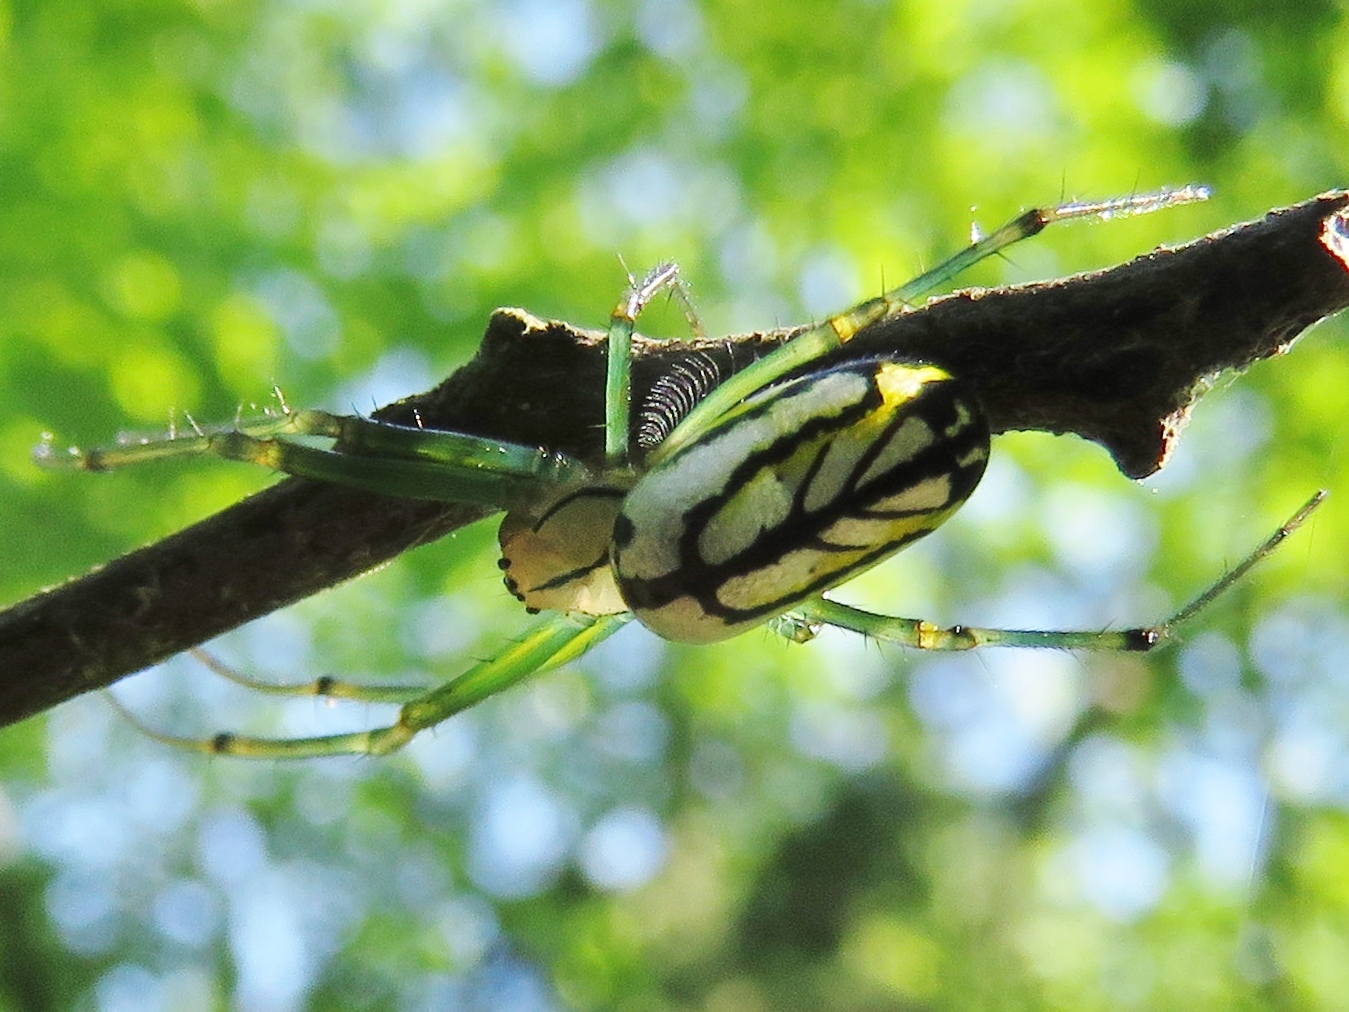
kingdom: Animalia
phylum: Arthropoda
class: Arachnida
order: Araneae
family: Tetragnathidae
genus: Leucauge
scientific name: Leucauge venusta
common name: Longjawed orb weavers
